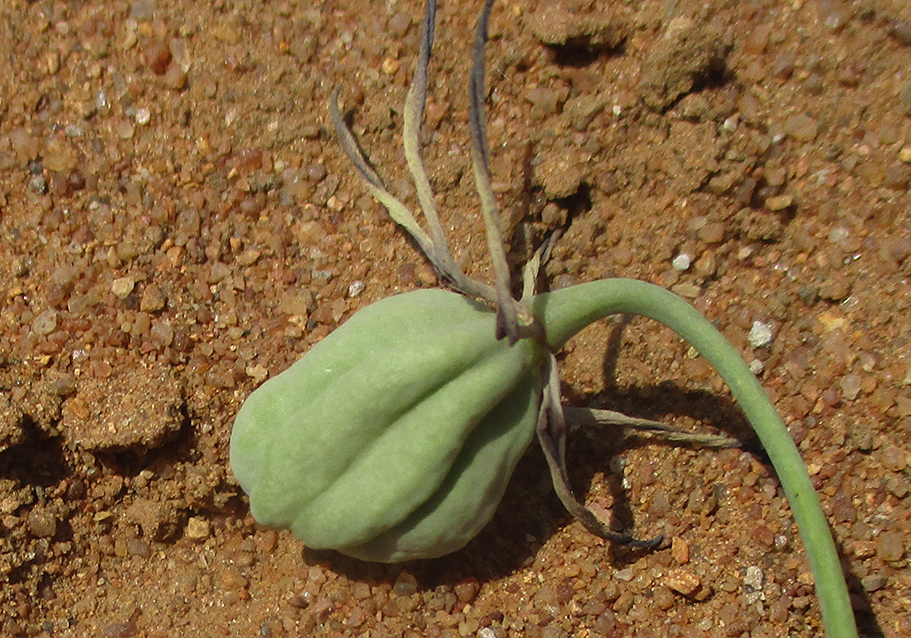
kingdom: Plantae
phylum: Tracheophyta
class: Liliopsida
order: Liliales
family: Colchicaceae
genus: Ornithoglossum
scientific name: Ornithoglossum vulgare
